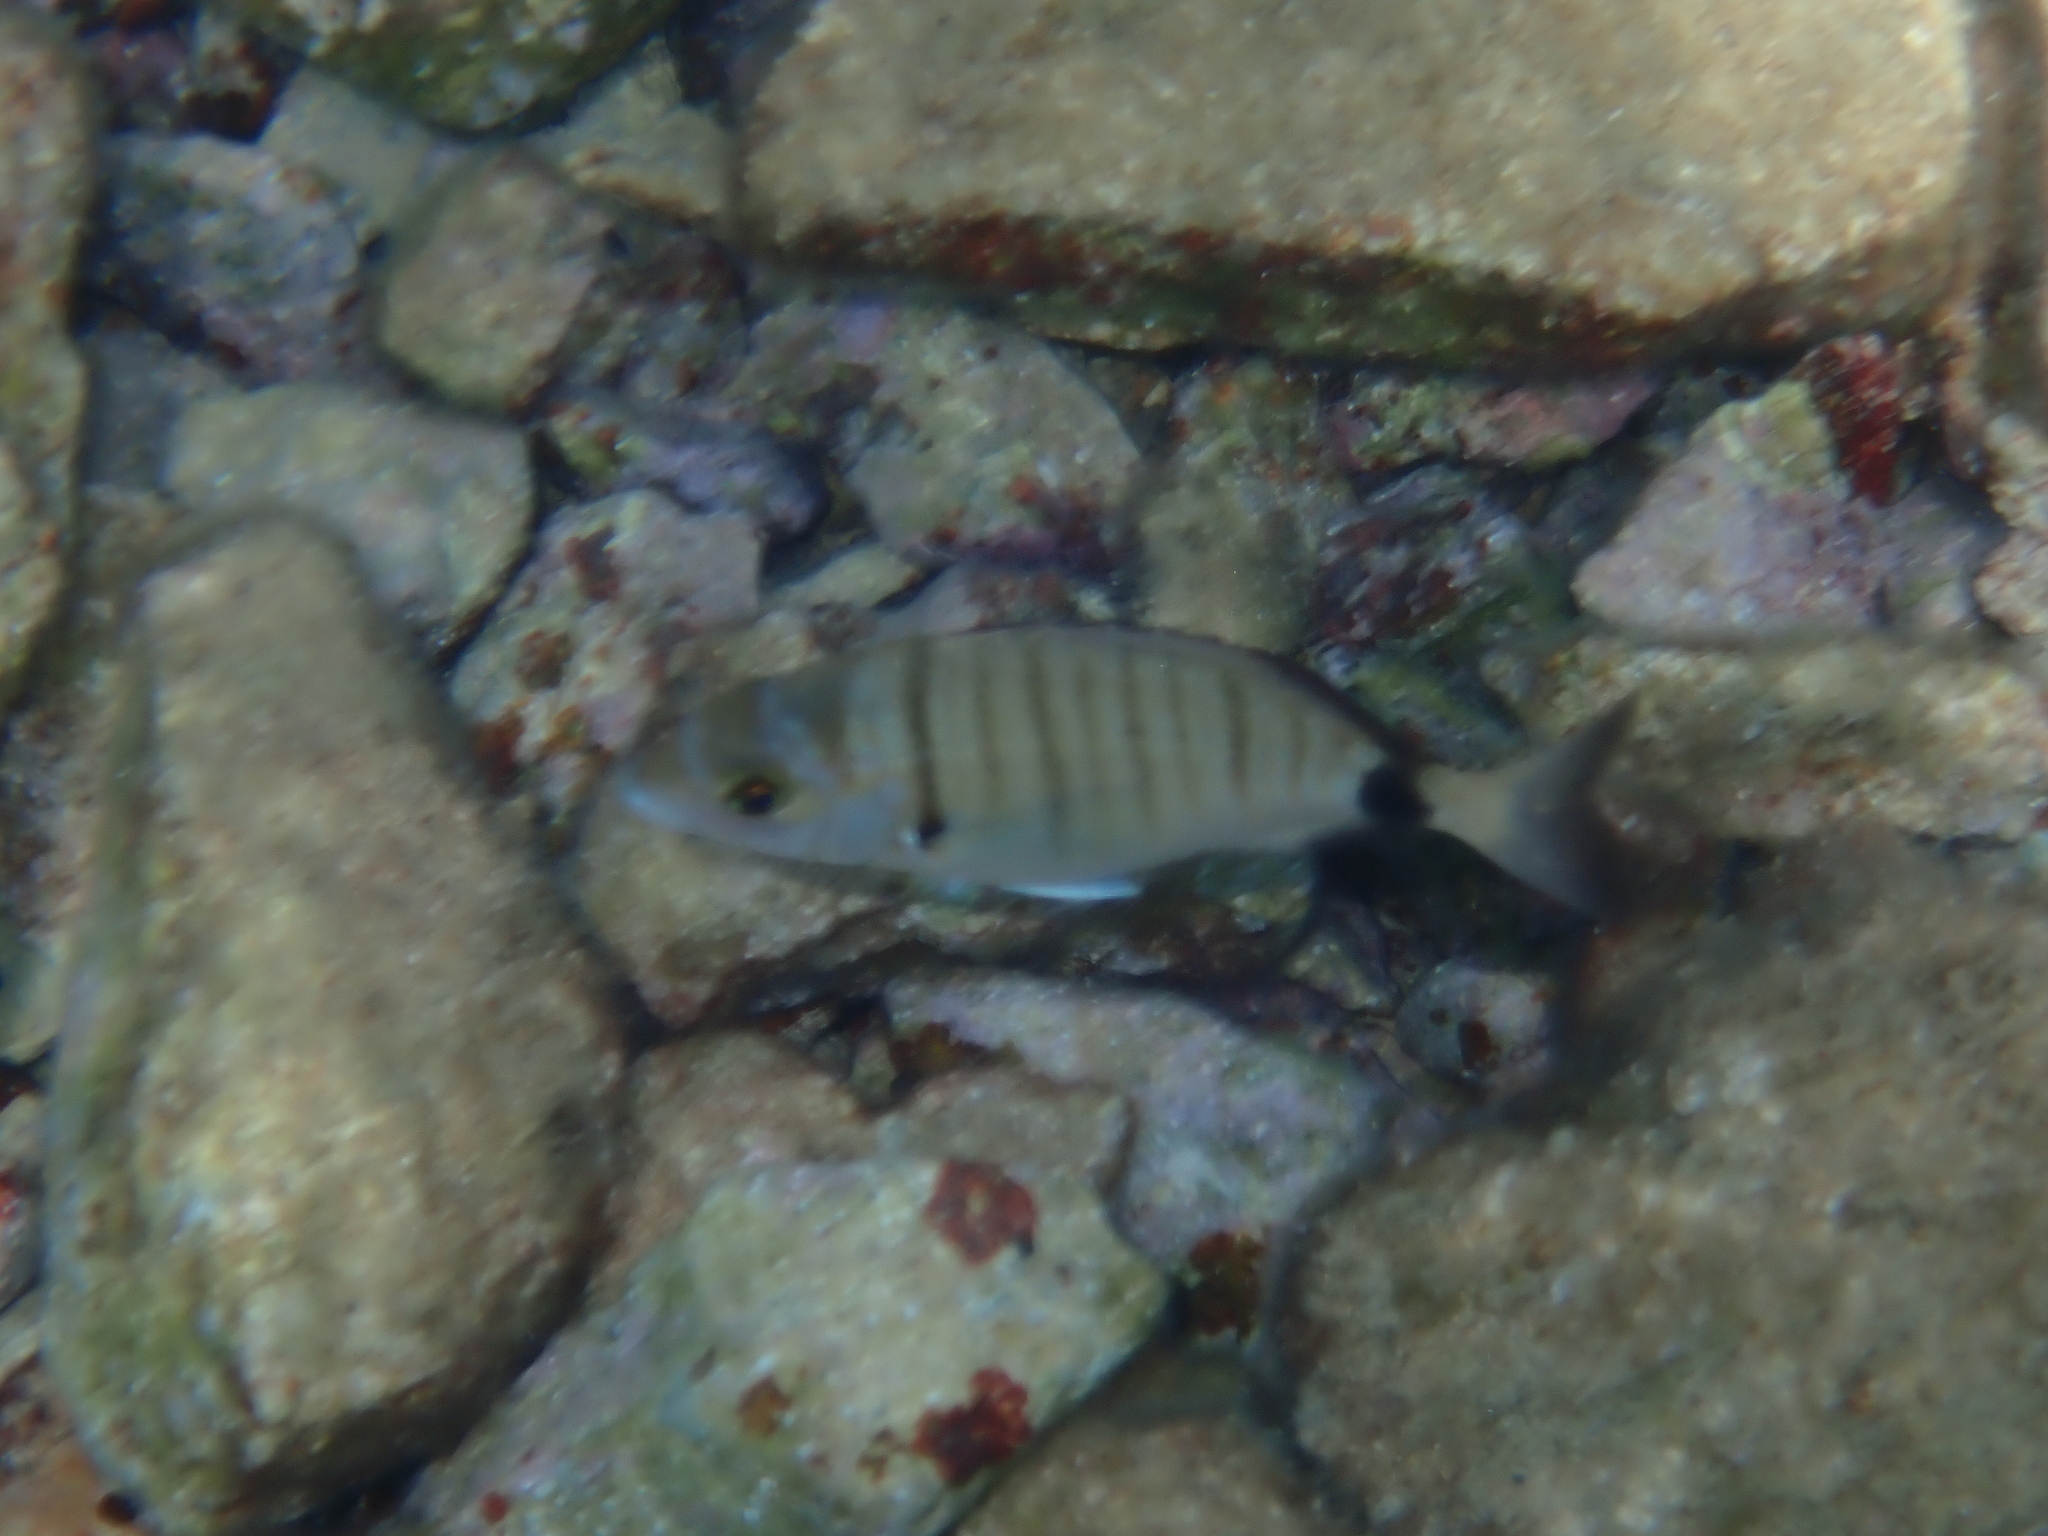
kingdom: Animalia
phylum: Chordata
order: Perciformes
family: Sparidae
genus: Diplodus
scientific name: Diplodus puntazzo
